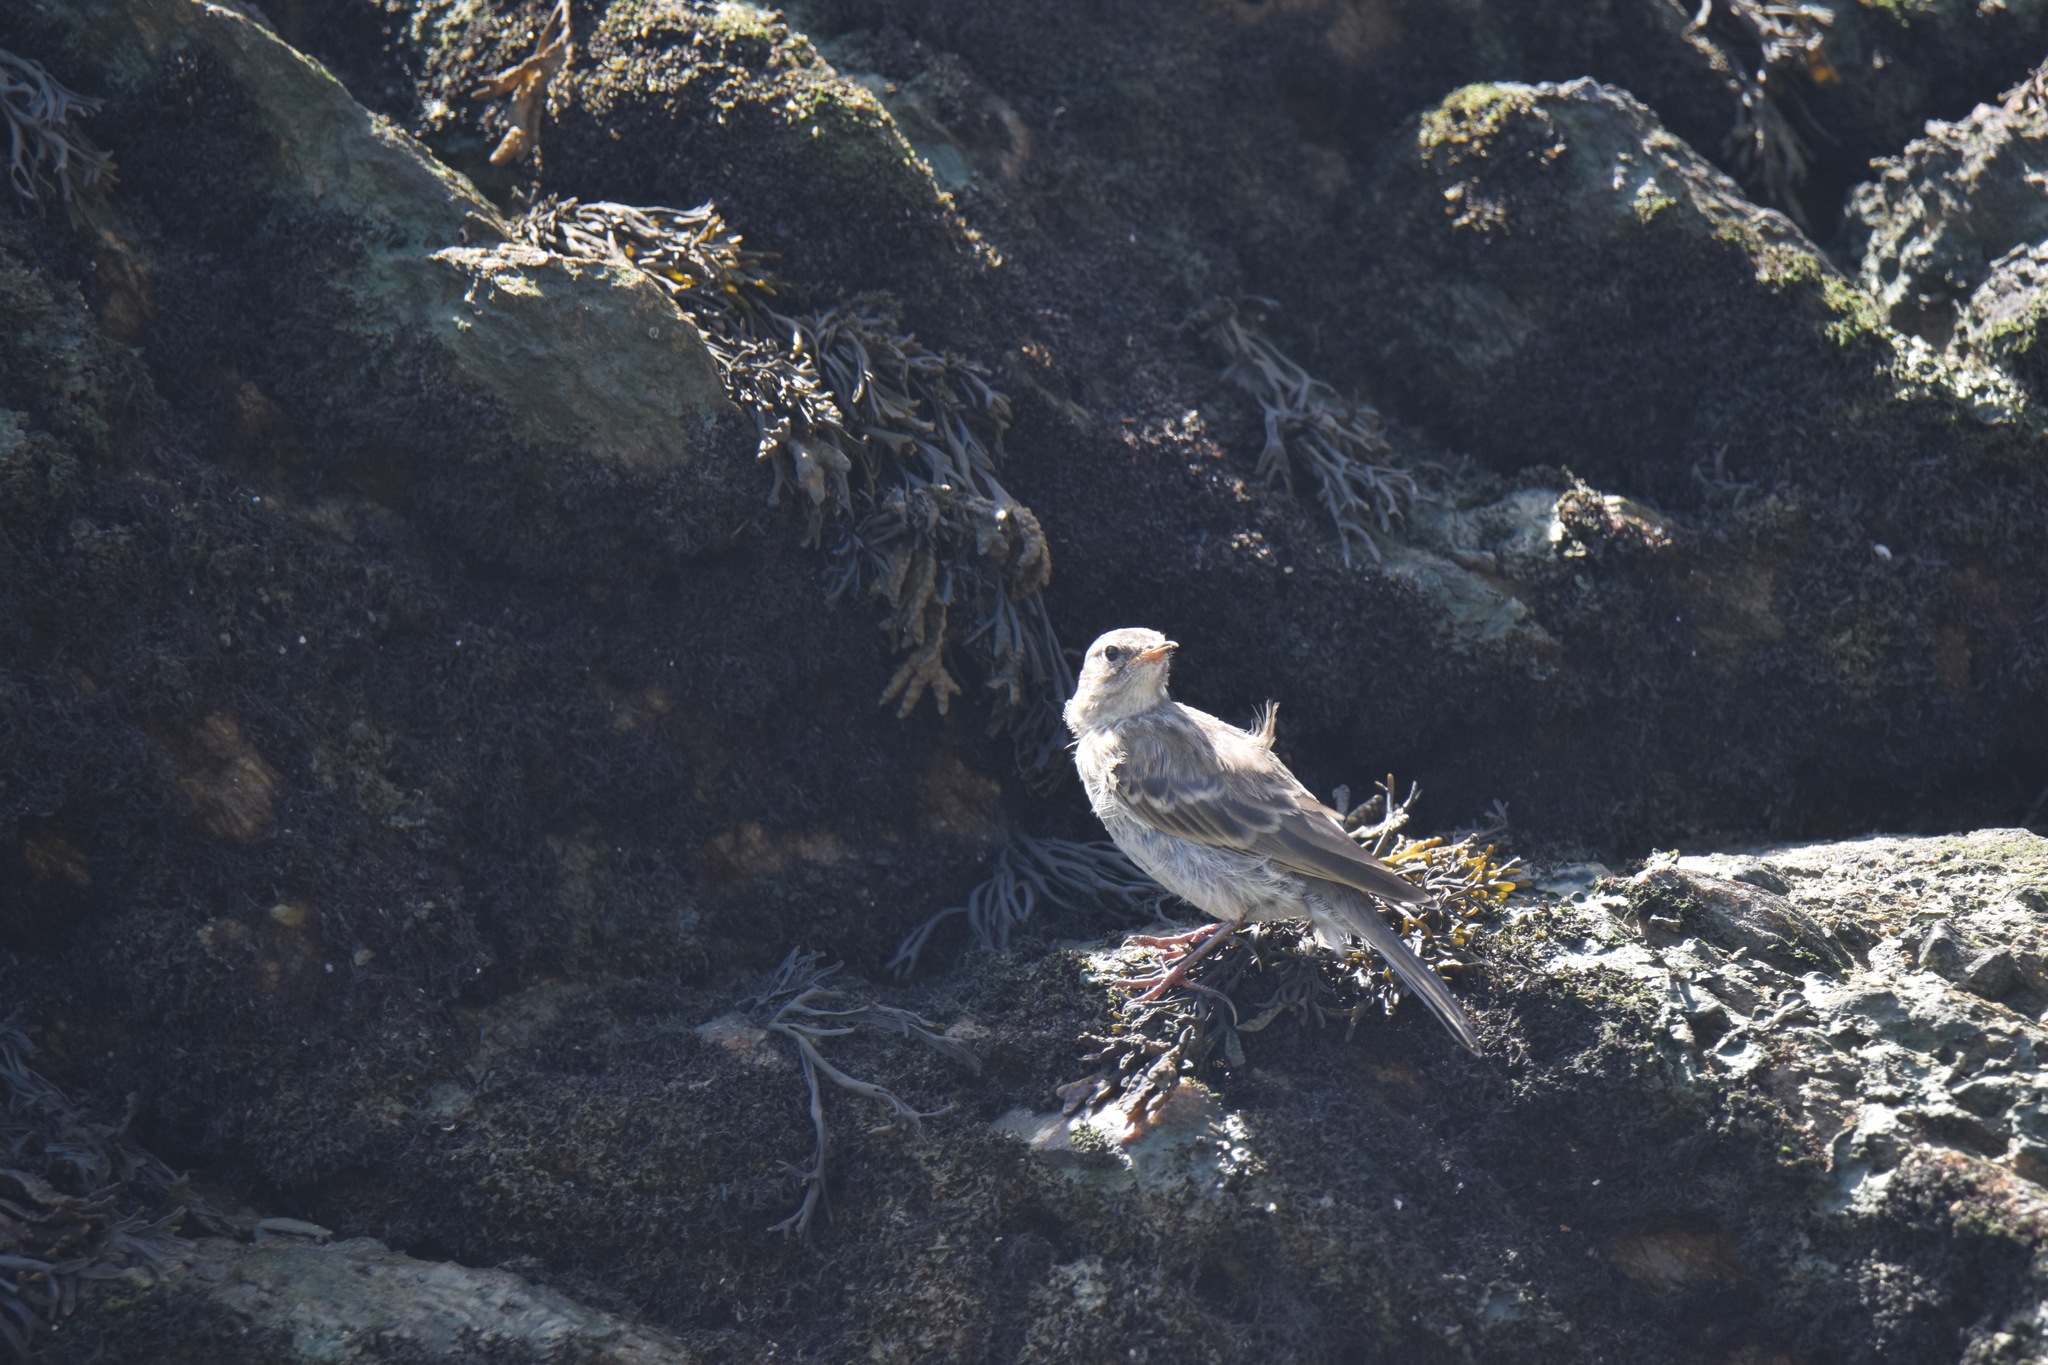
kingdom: Animalia
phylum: Chordata
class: Aves
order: Passeriformes
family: Motacillidae
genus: Anthus
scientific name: Anthus petrosus
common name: Eurasian rock pipit
